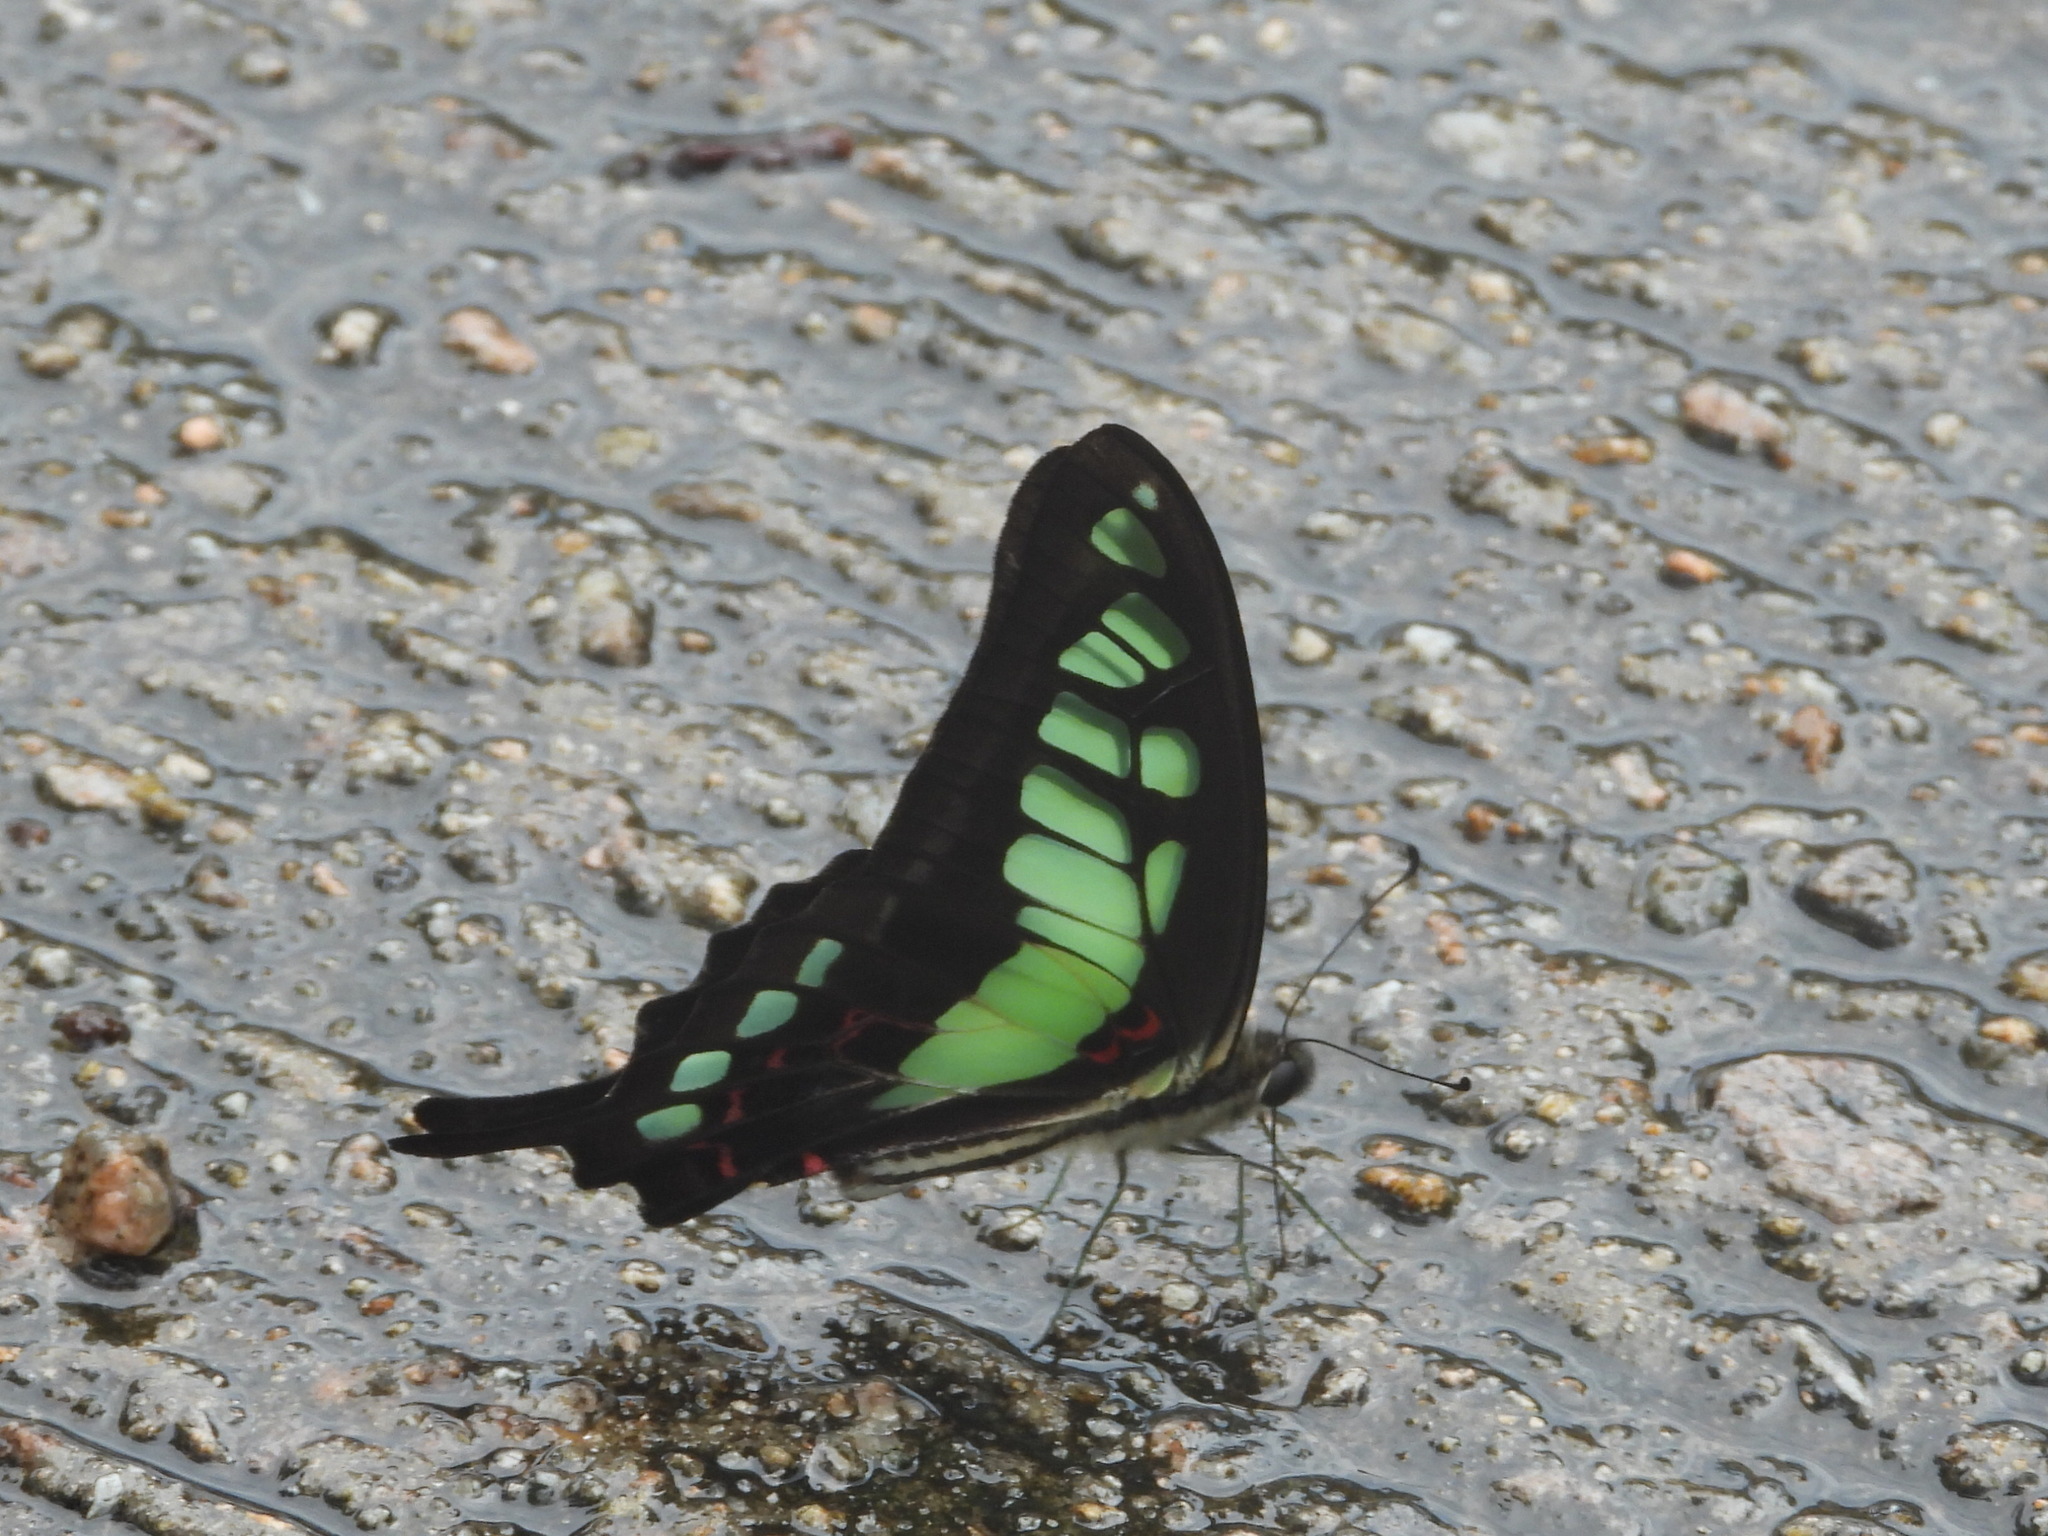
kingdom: Animalia
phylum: Arthropoda
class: Insecta
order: Lepidoptera
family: Papilionidae
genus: Graphium
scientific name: Graphium cloanthus
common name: Glassy bluebottle
